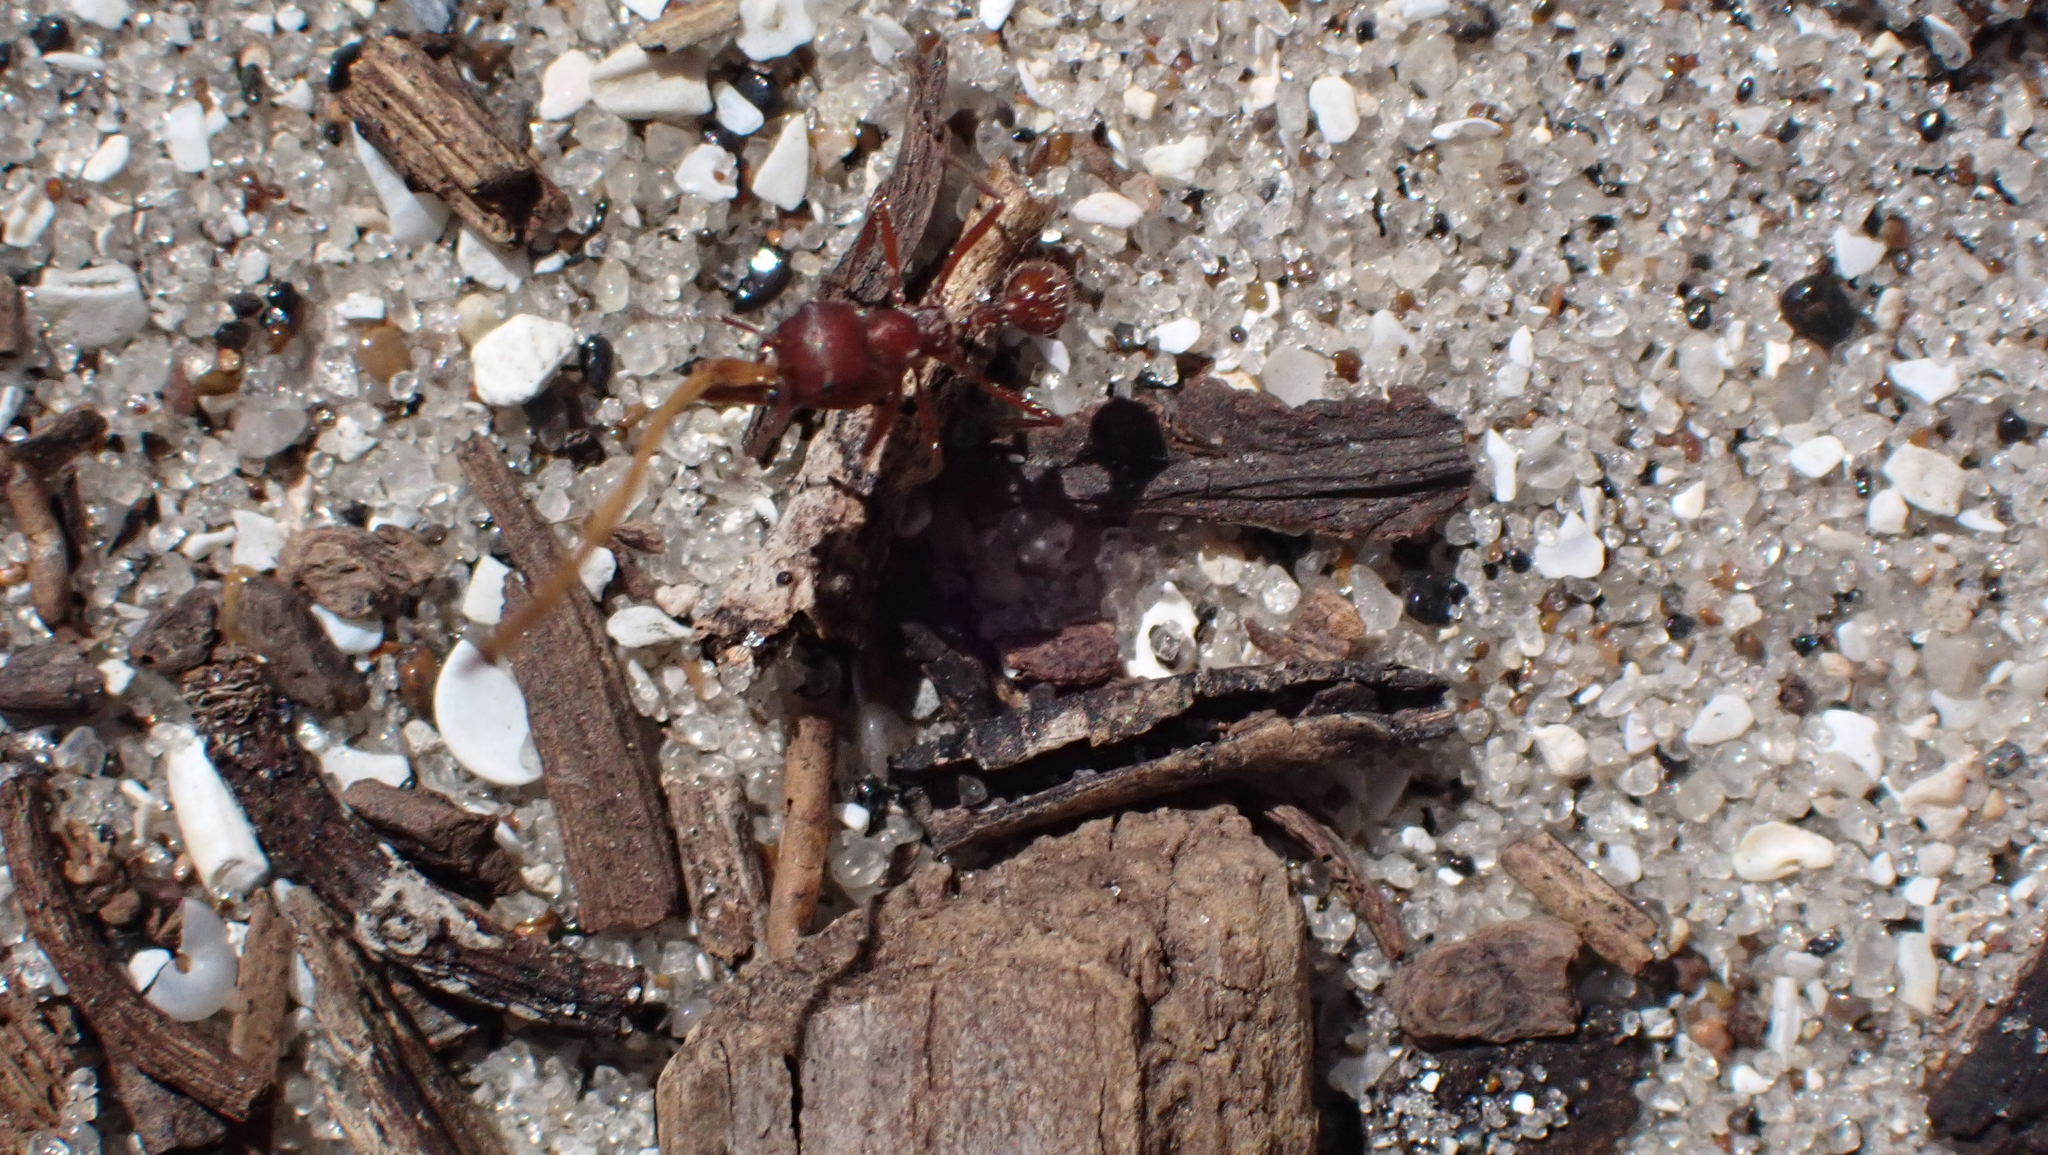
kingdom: Animalia
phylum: Arthropoda
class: Insecta
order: Hymenoptera
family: Formicidae
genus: Pogonomyrmex
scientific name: Pogonomyrmex badius
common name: Florida harvester ant
